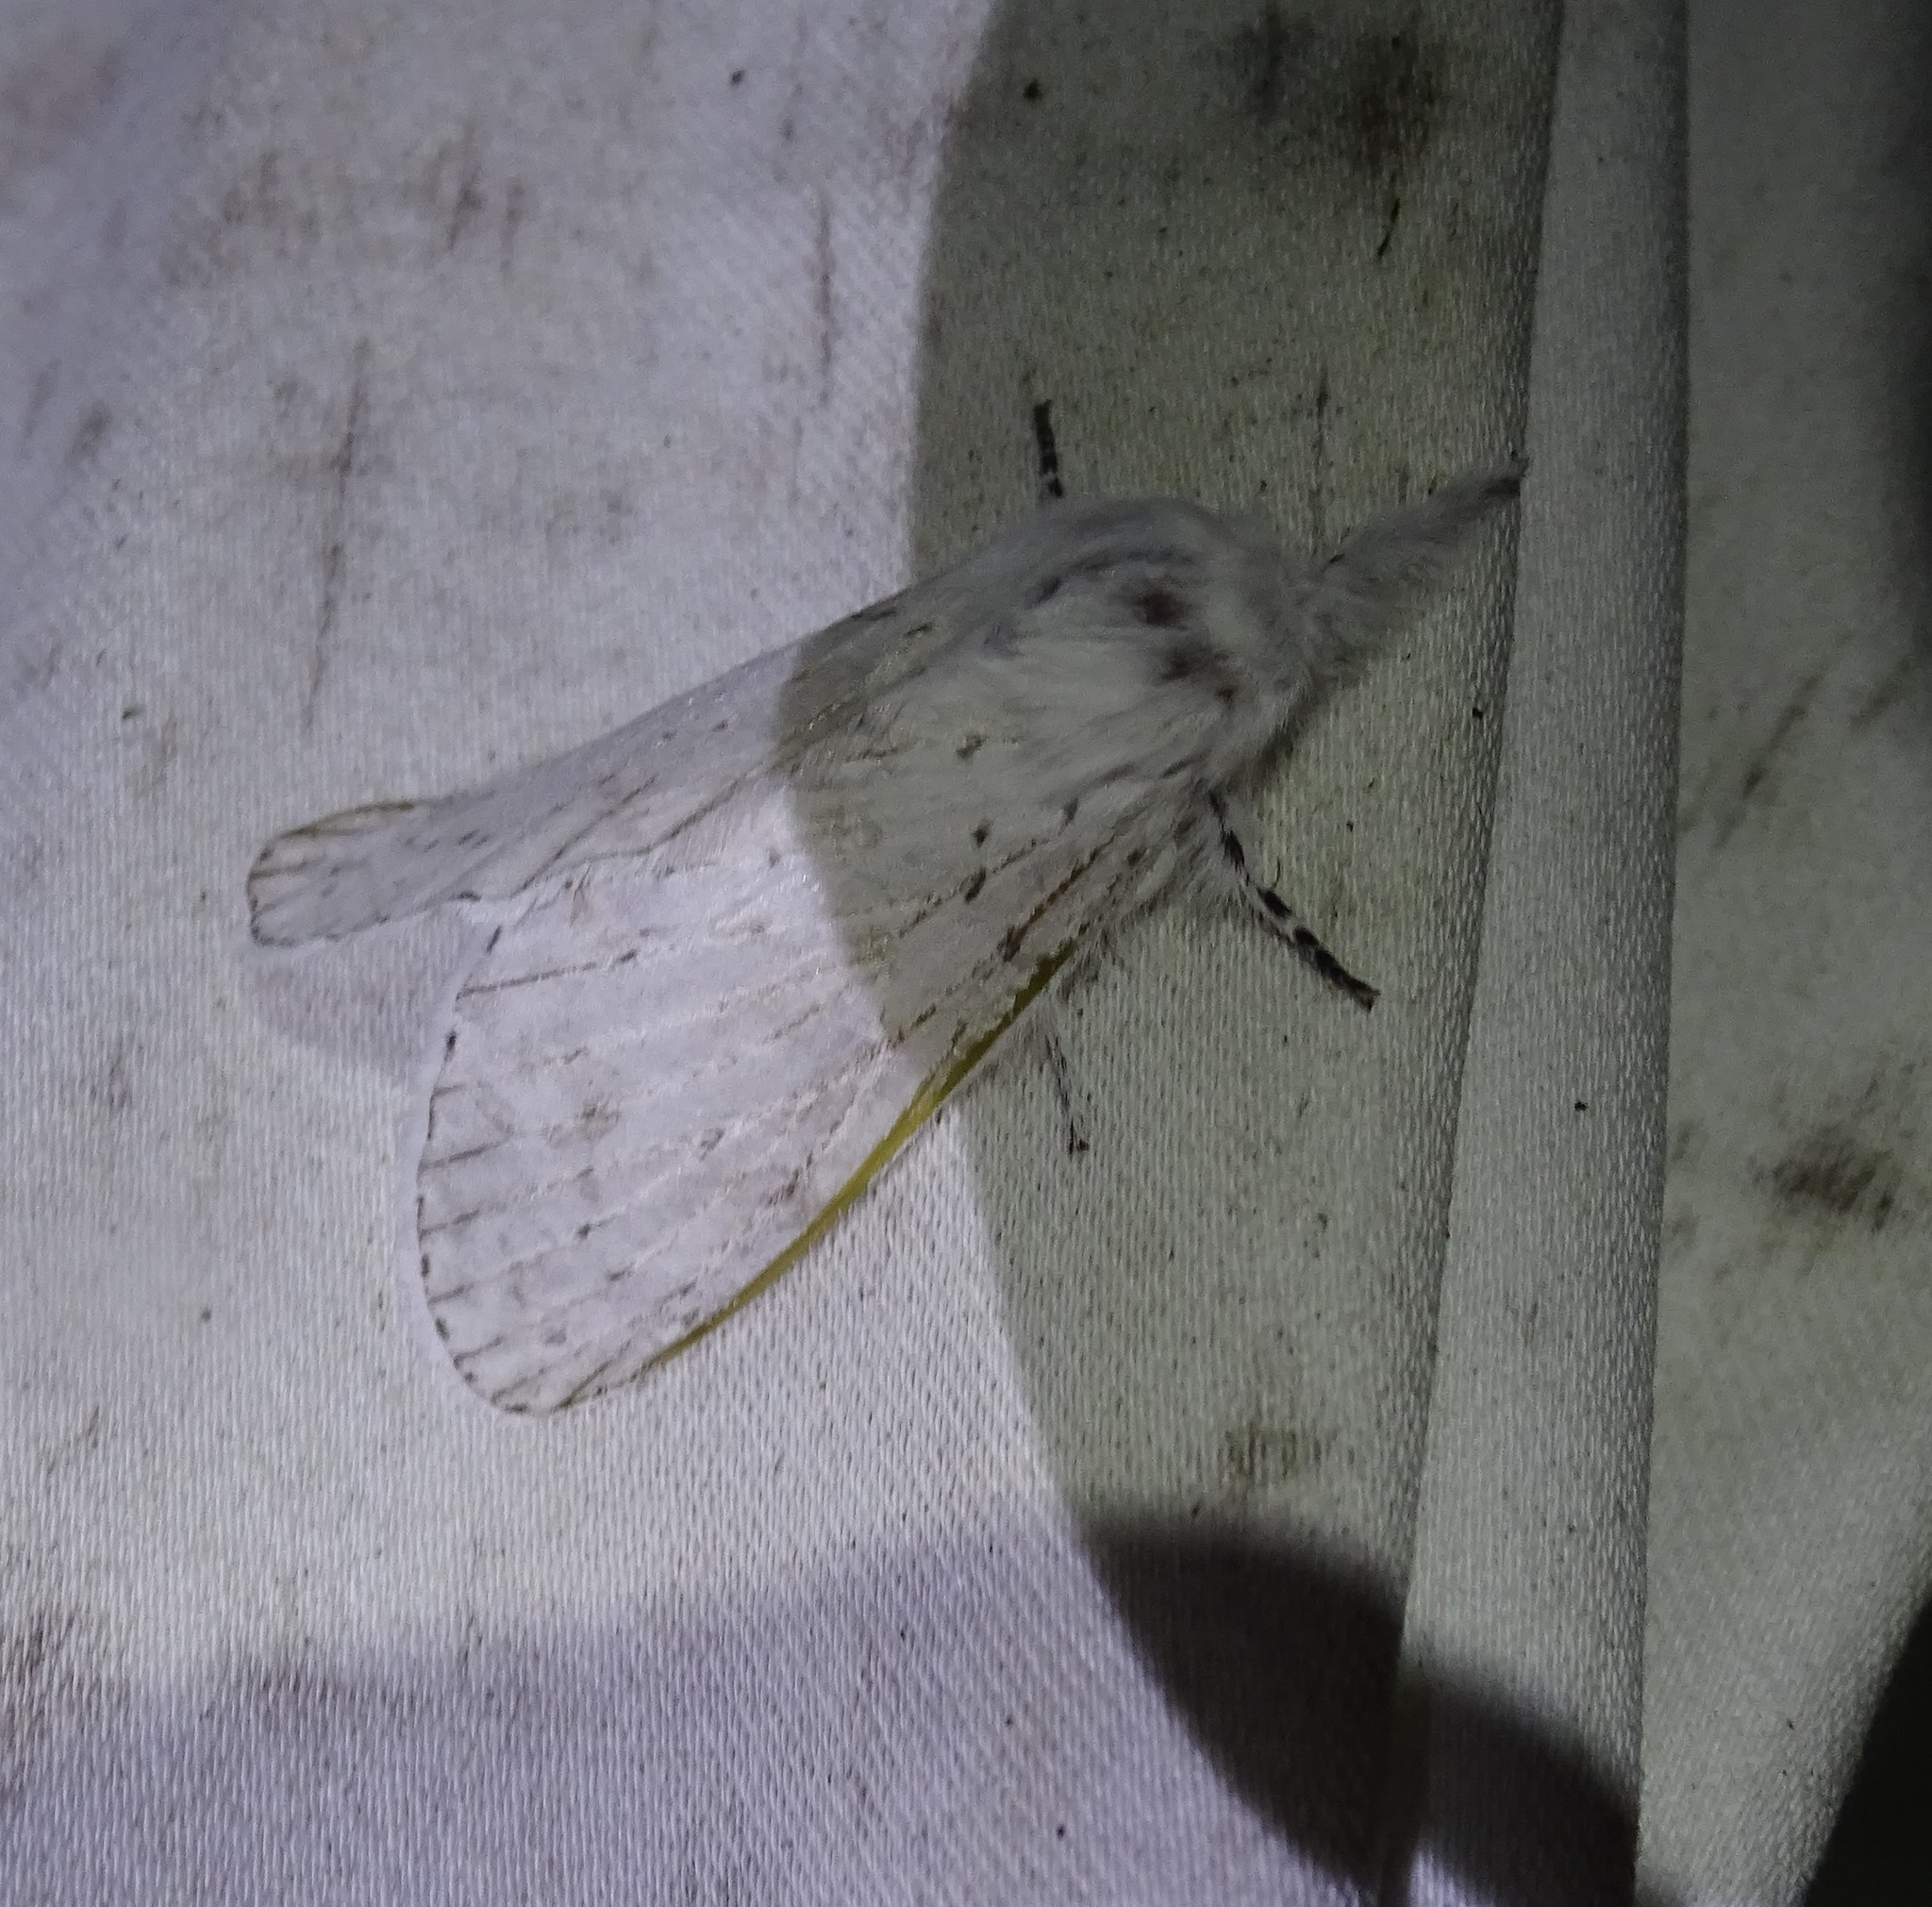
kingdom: Animalia
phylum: Arthropoda
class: Insecta
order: Lepidoptera
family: Lasiocampidae
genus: Artace
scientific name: Artace cribrarius
